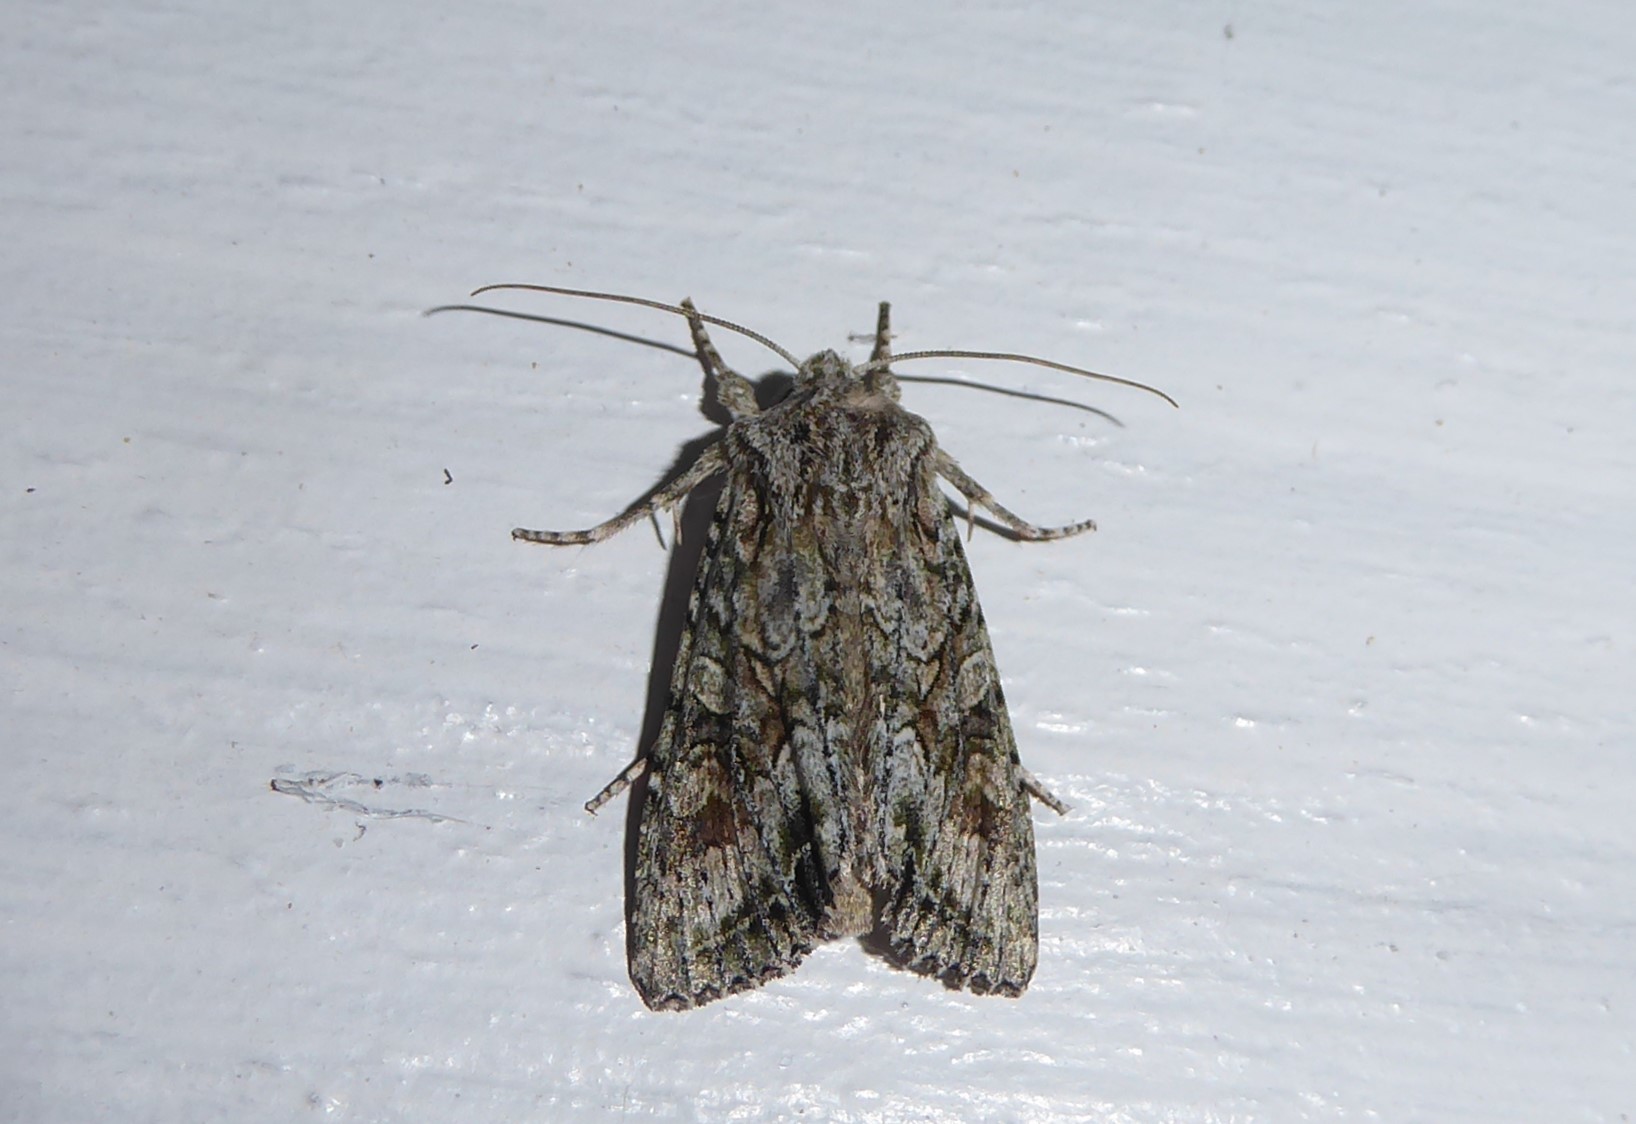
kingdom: Animalia
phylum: Arthropoda
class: Insecta
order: Lepidoptera
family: Noctuidae
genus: Ichneutica
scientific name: Ichneutica mutans
